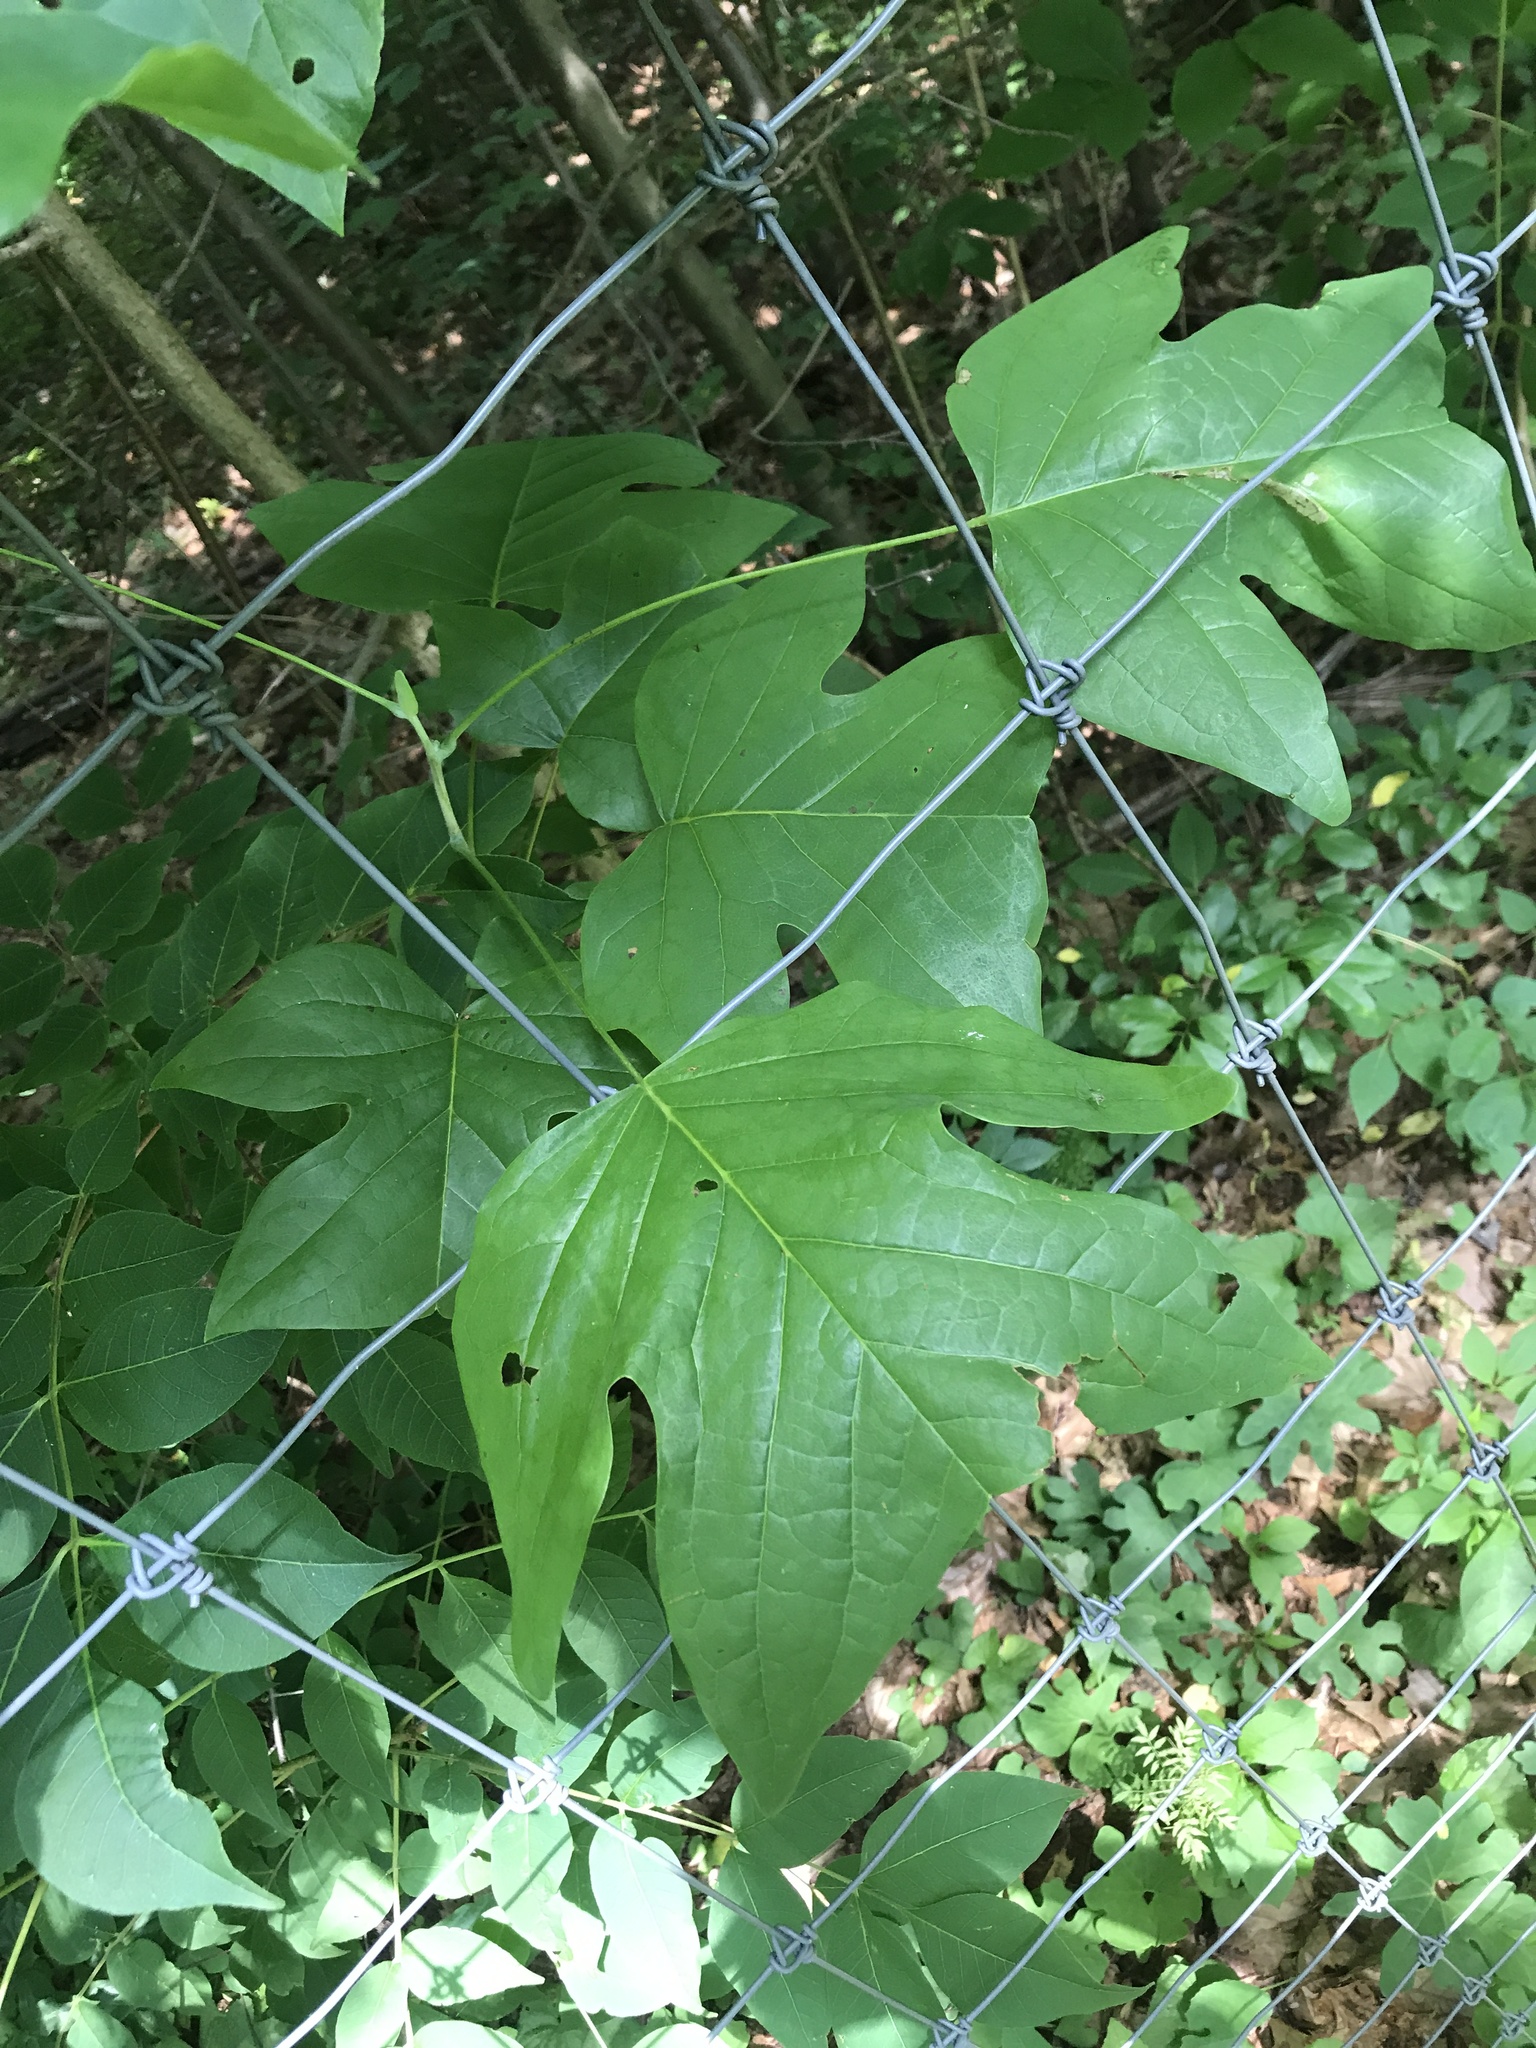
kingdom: Plantae
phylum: Tracheophyta
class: Magnoliopsida
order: Magnoliales
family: Magnoliaceae
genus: Liriodendron
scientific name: Liriodendron tulipifera
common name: Tulip tree
